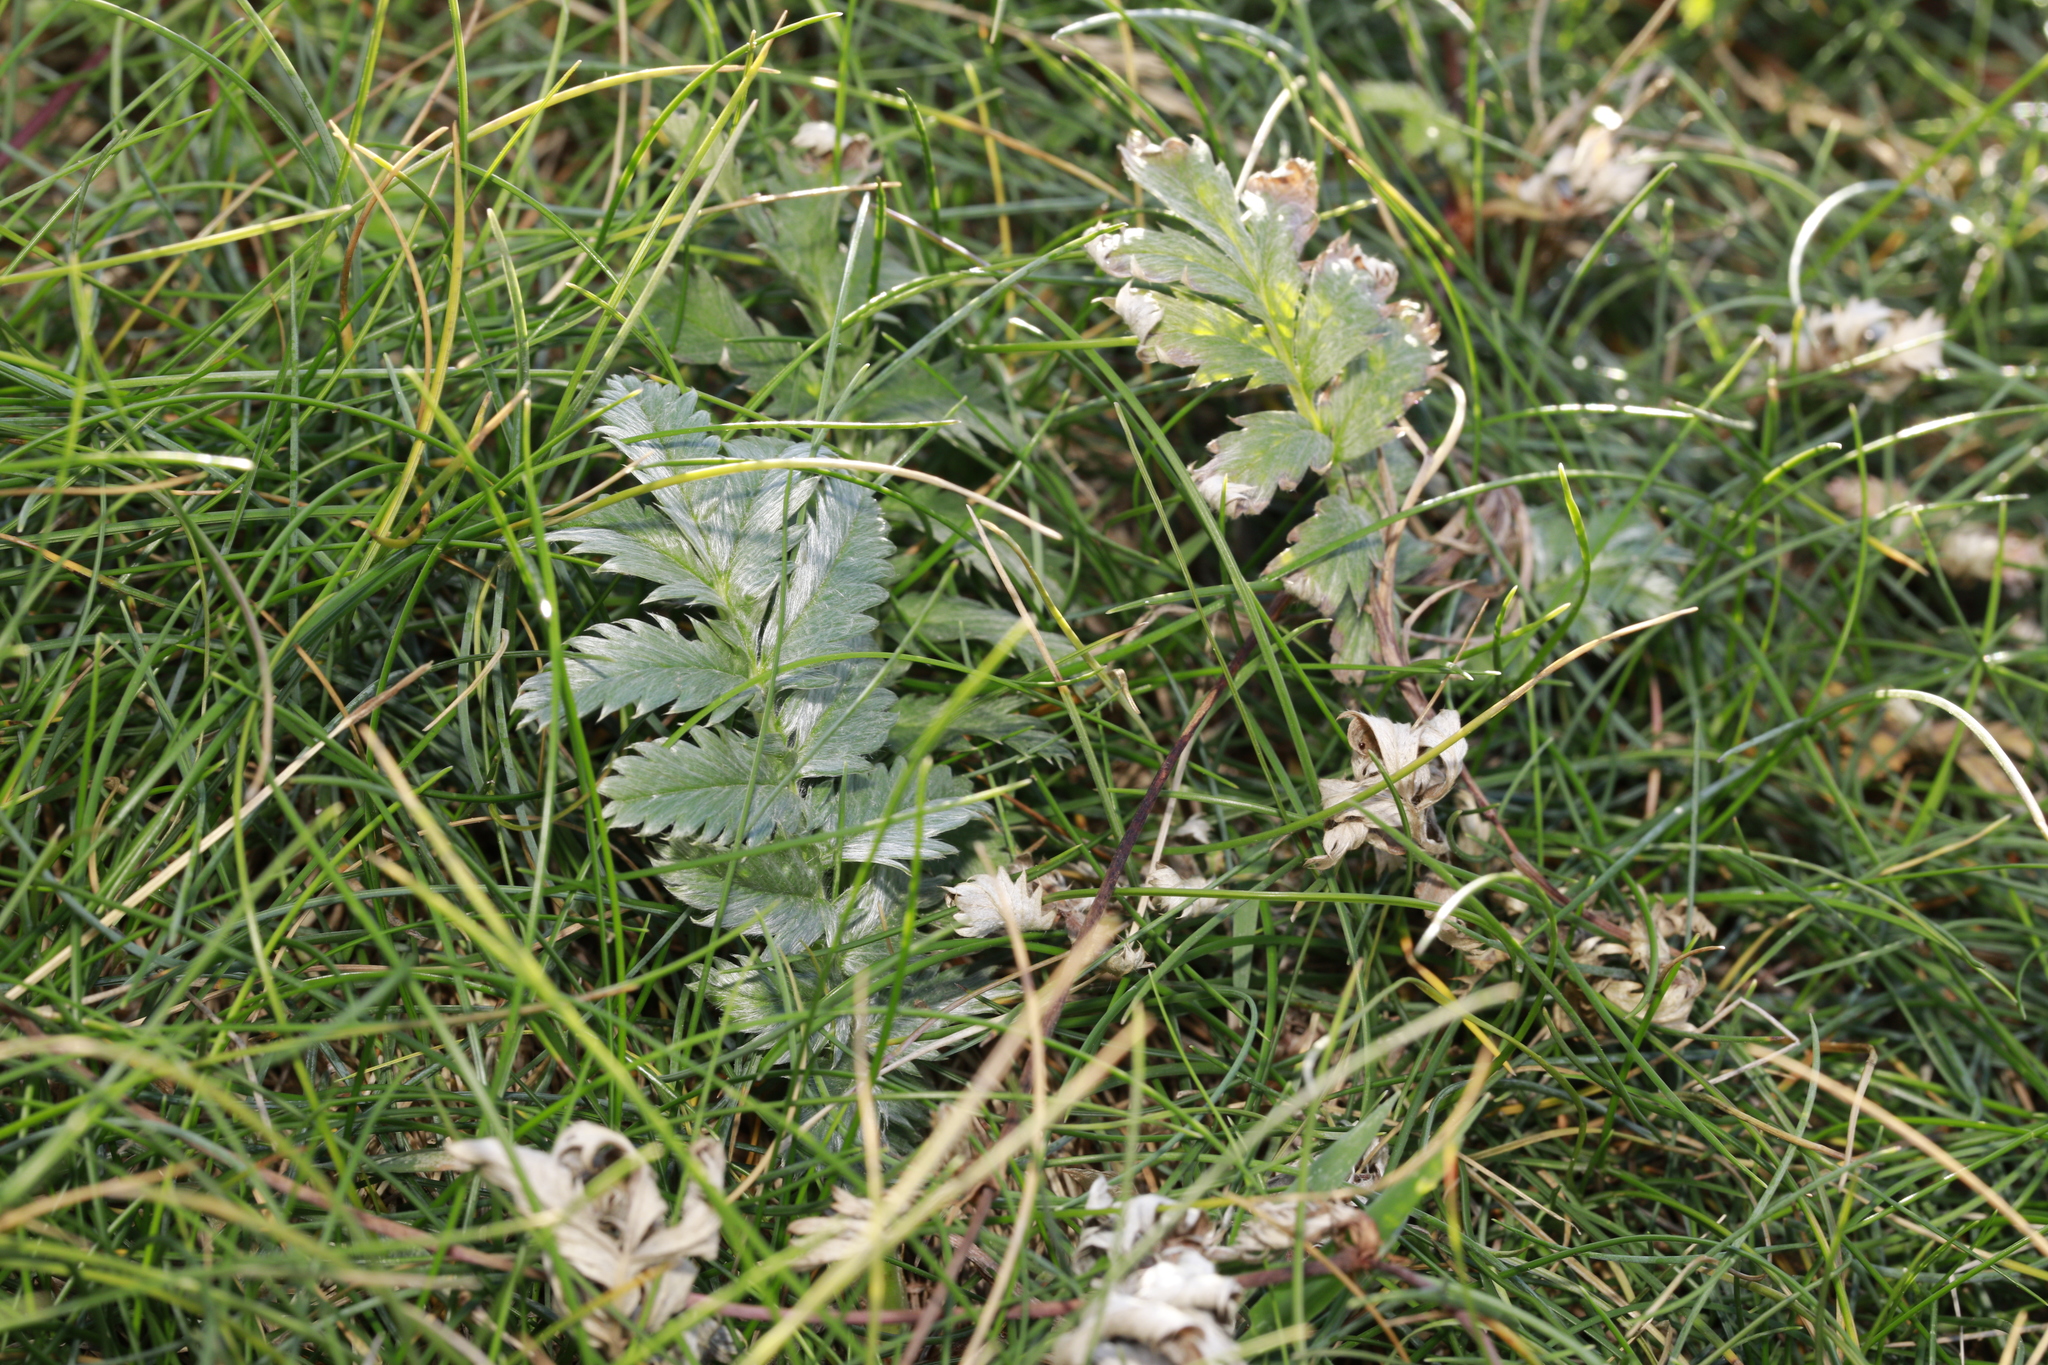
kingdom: Plantae
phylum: Tracheophyta
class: Magnoliopsida
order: Rosales
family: Rosaceae
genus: Argentina
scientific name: Argentina anserina
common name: Common silverweed
